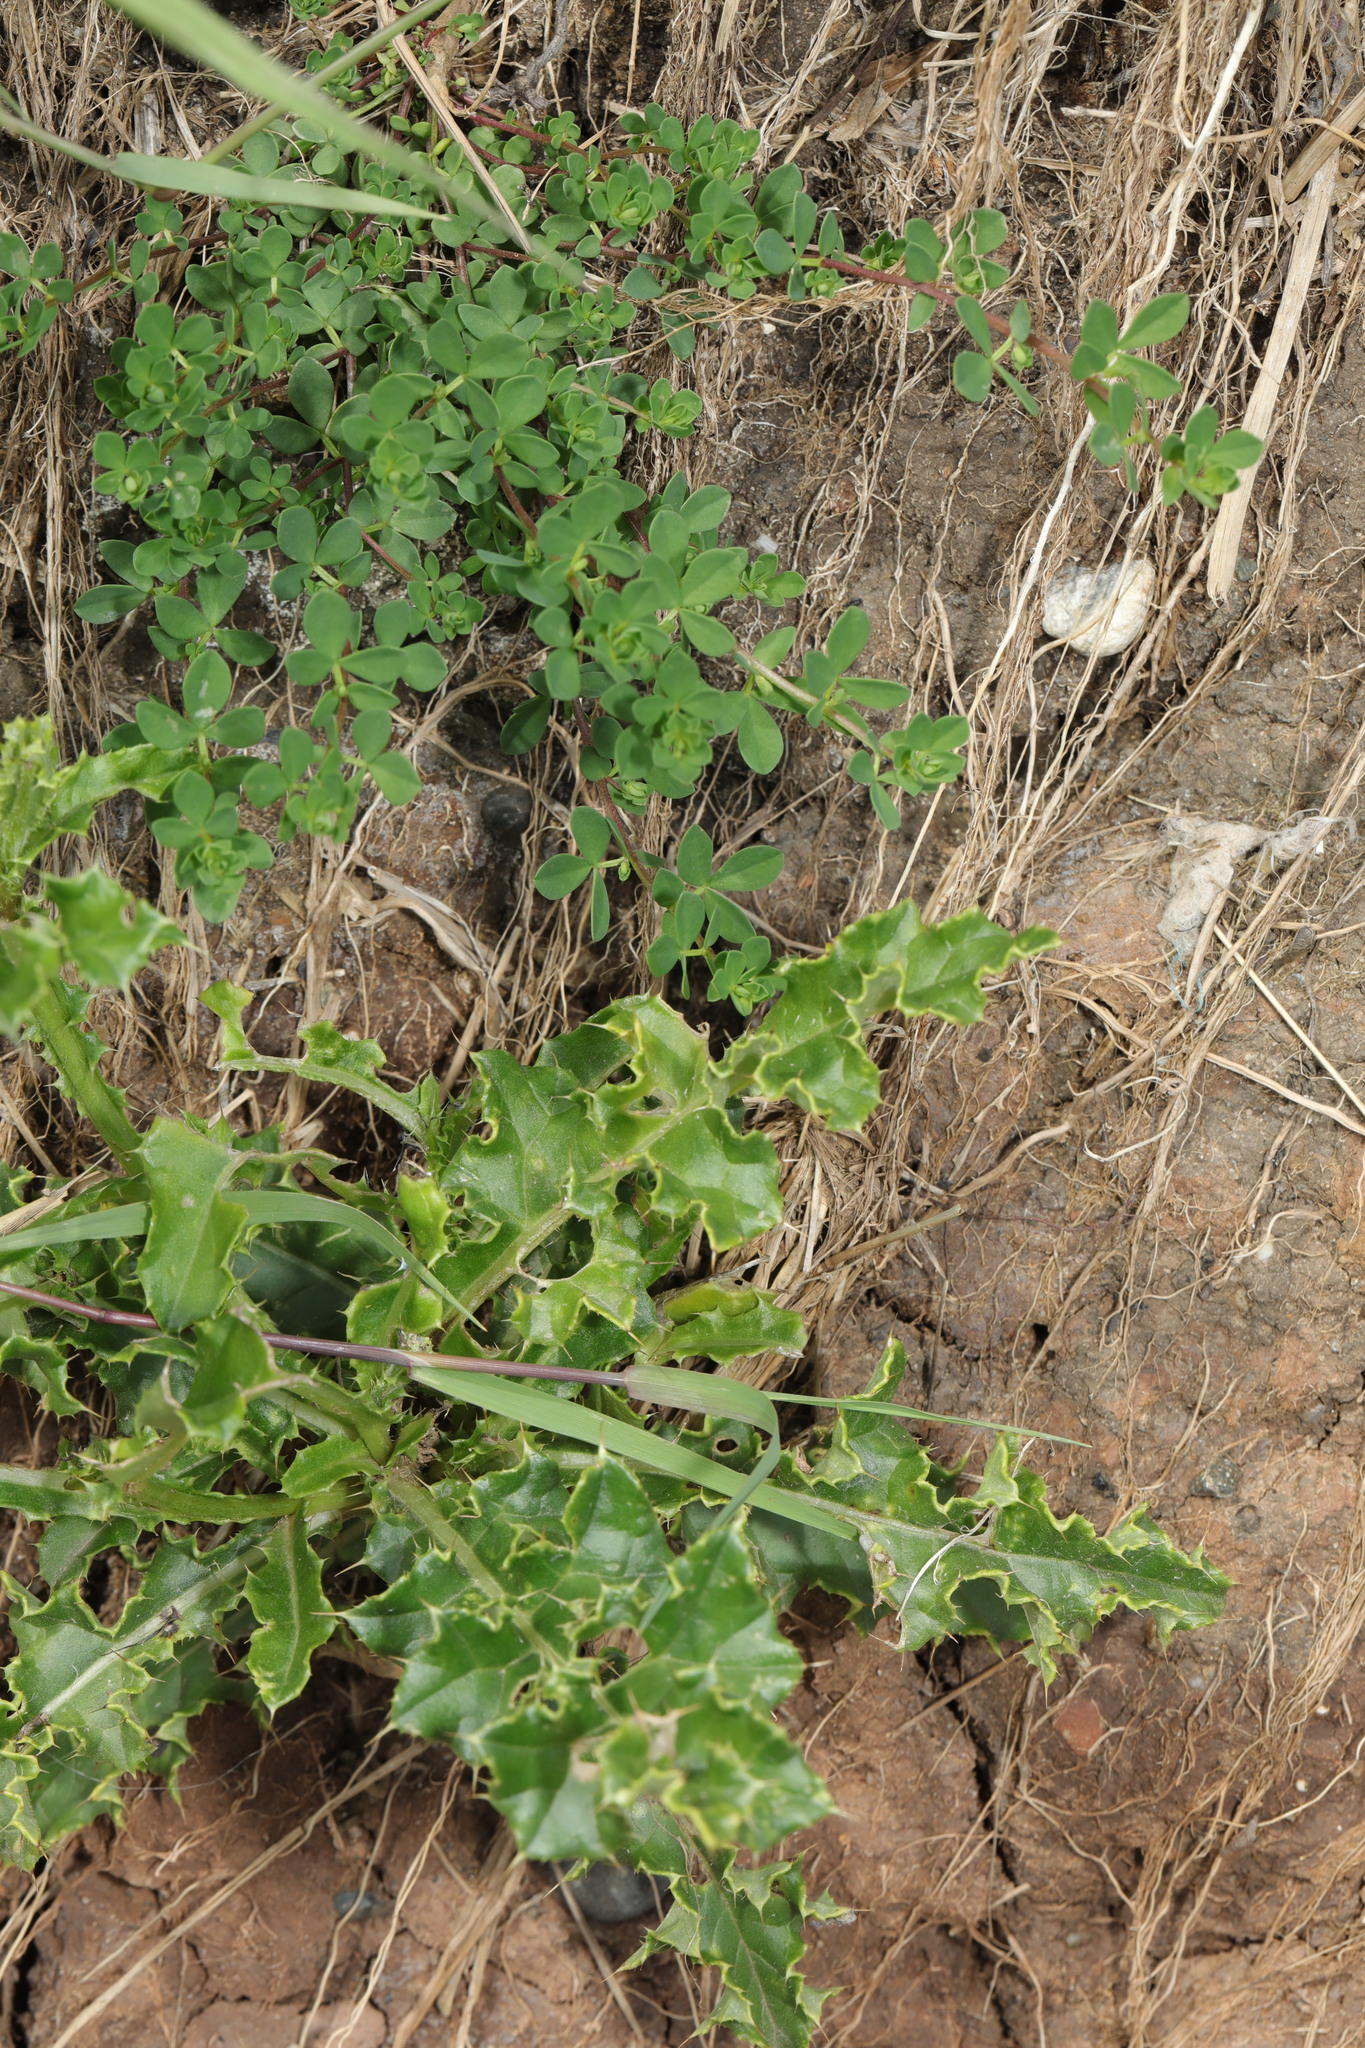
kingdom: Plantae
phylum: Tracheophyta
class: Magnoliopsida
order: Asterales
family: Asteraceae
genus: Cirsium
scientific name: Cirsium arvense
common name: Creeping thistle
